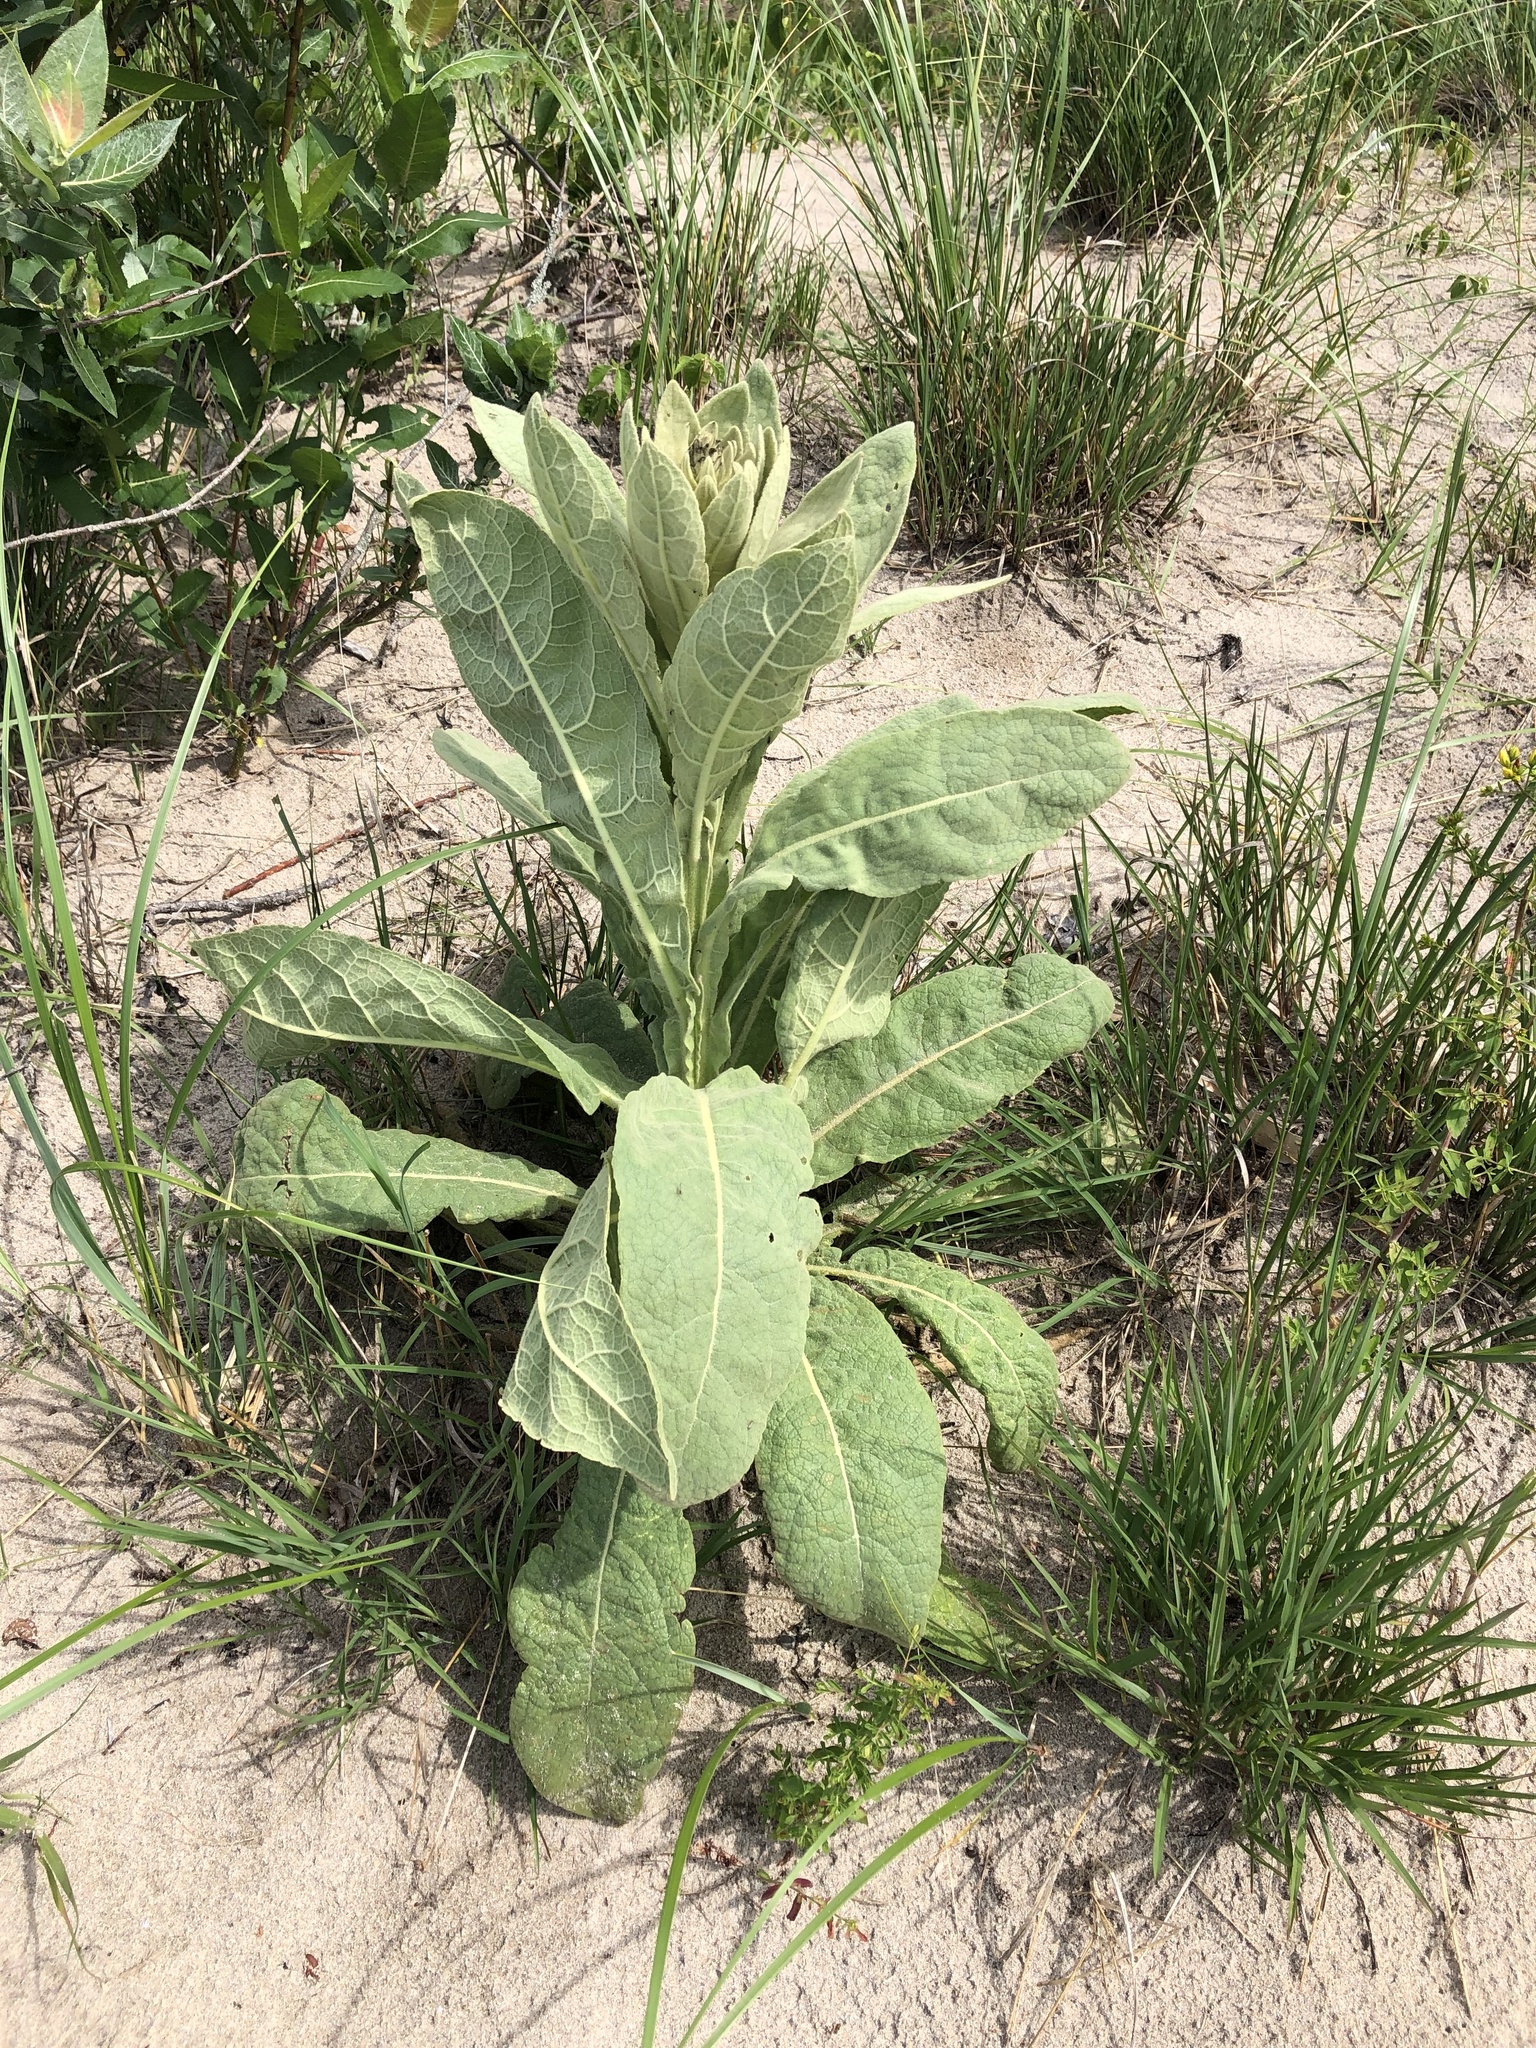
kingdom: Plantae
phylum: Tracheophyta
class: Magnoliopsida
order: Lamiales
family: Scrophulariaceae
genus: Verbascum
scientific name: Verbascum thapsus
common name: Common mullein
